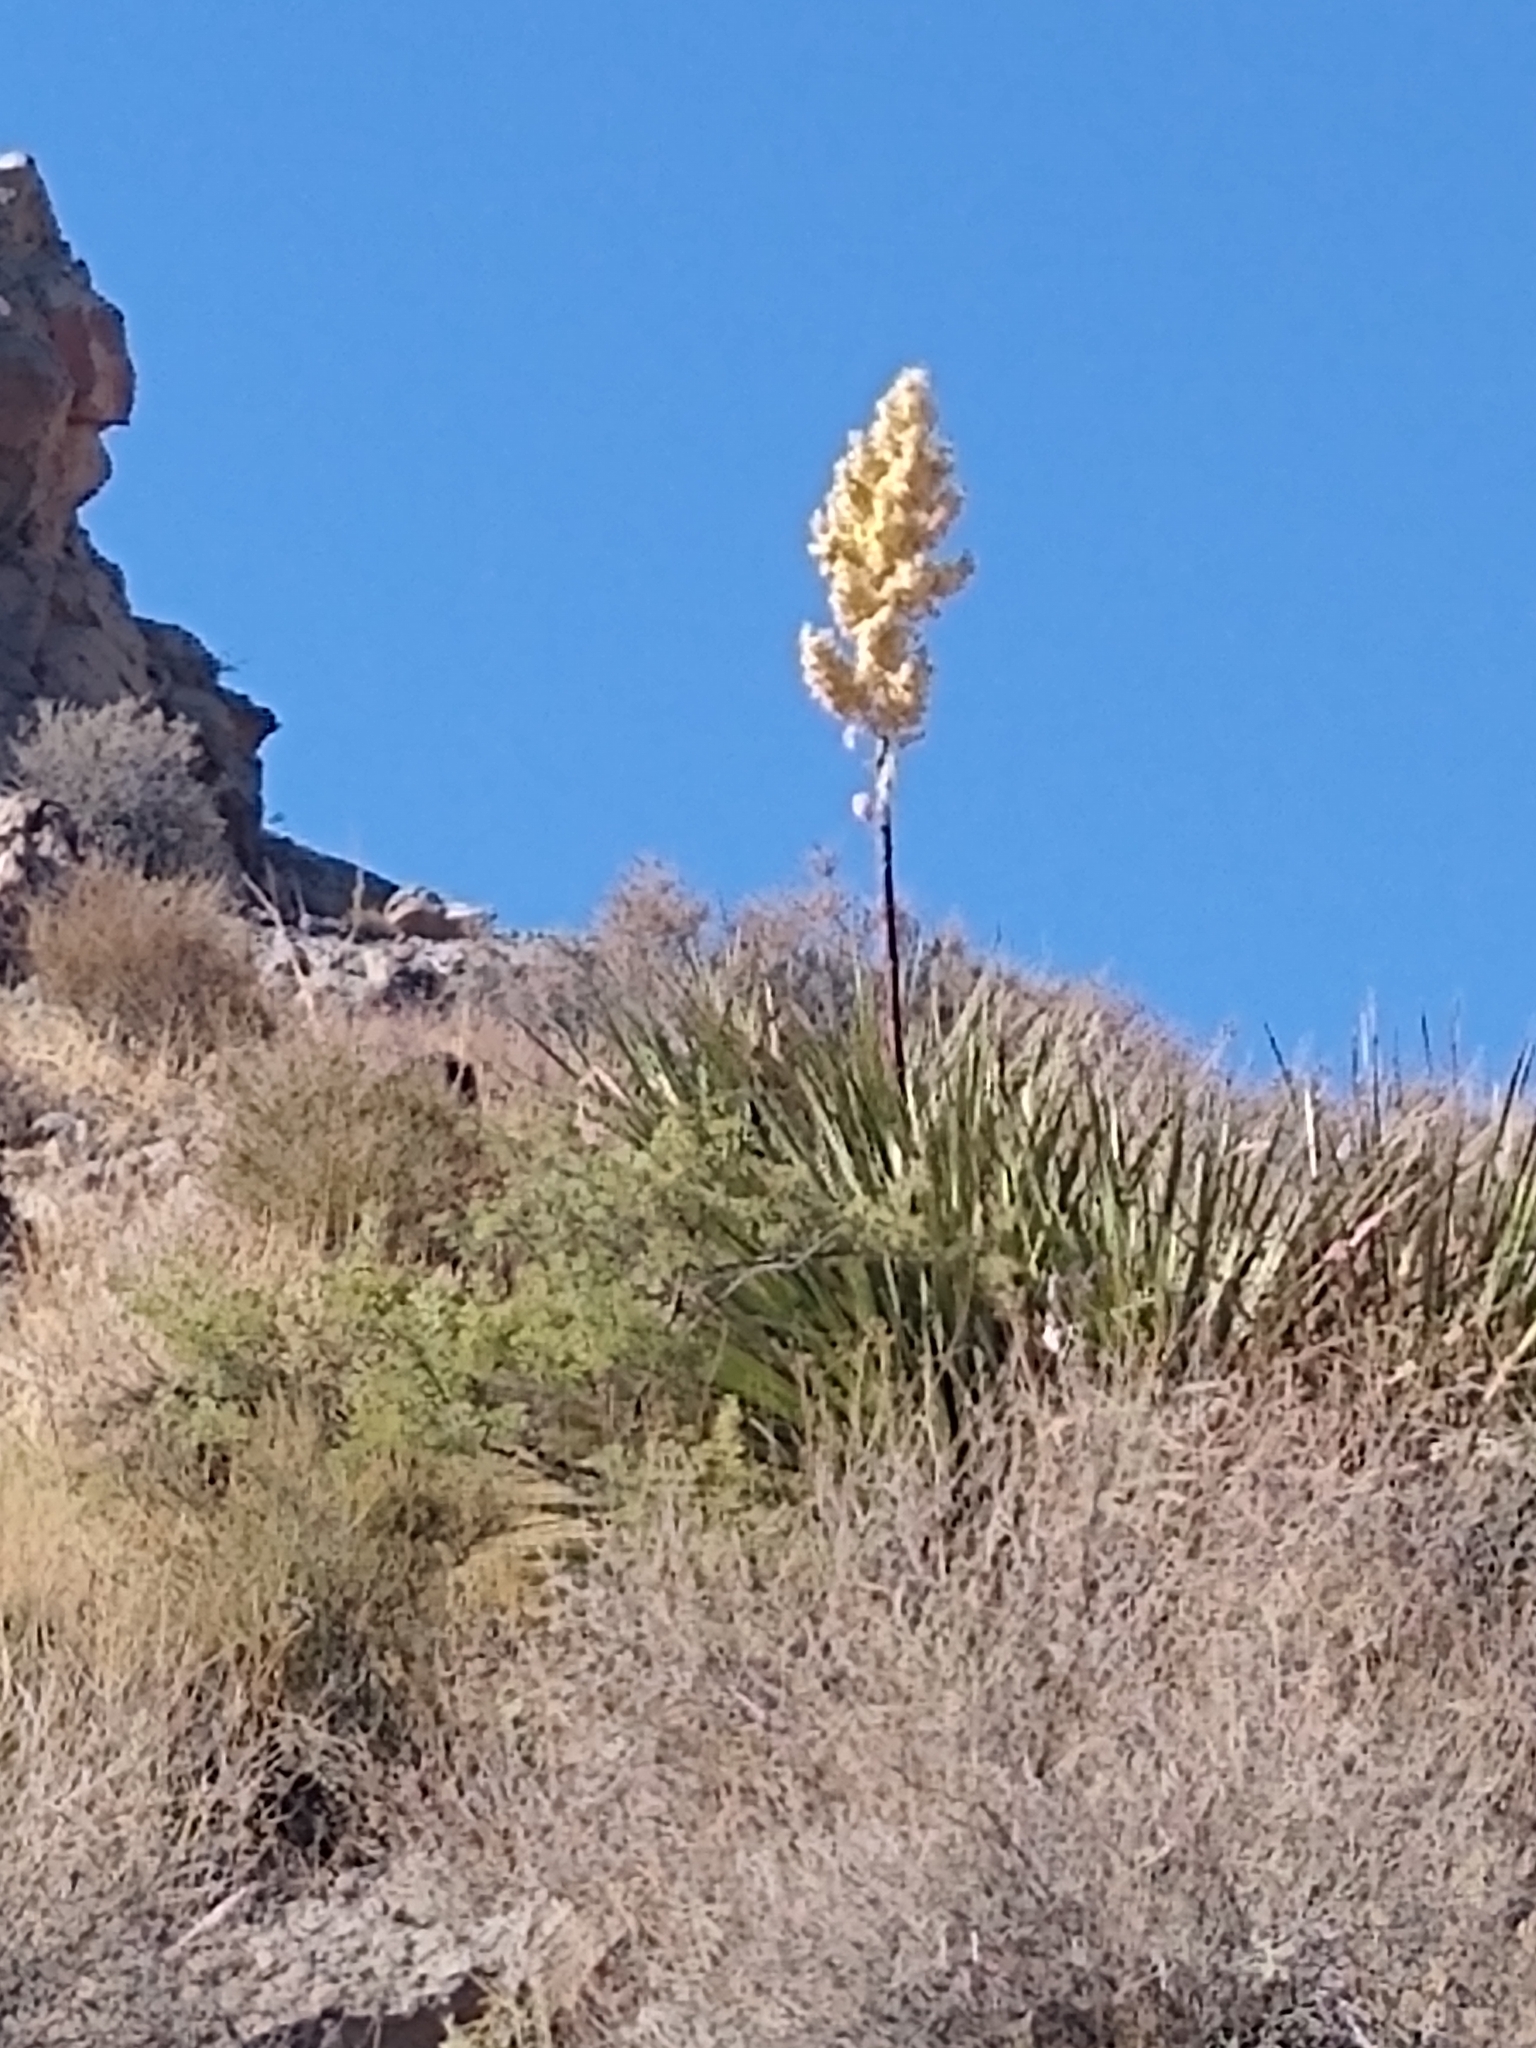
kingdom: Plantae
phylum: Tracheophyta
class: Liliopsida
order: Asparagales
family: Asparagaceae
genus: Nolina
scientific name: Nolina bigelovii
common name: Bigelow bear-grass
